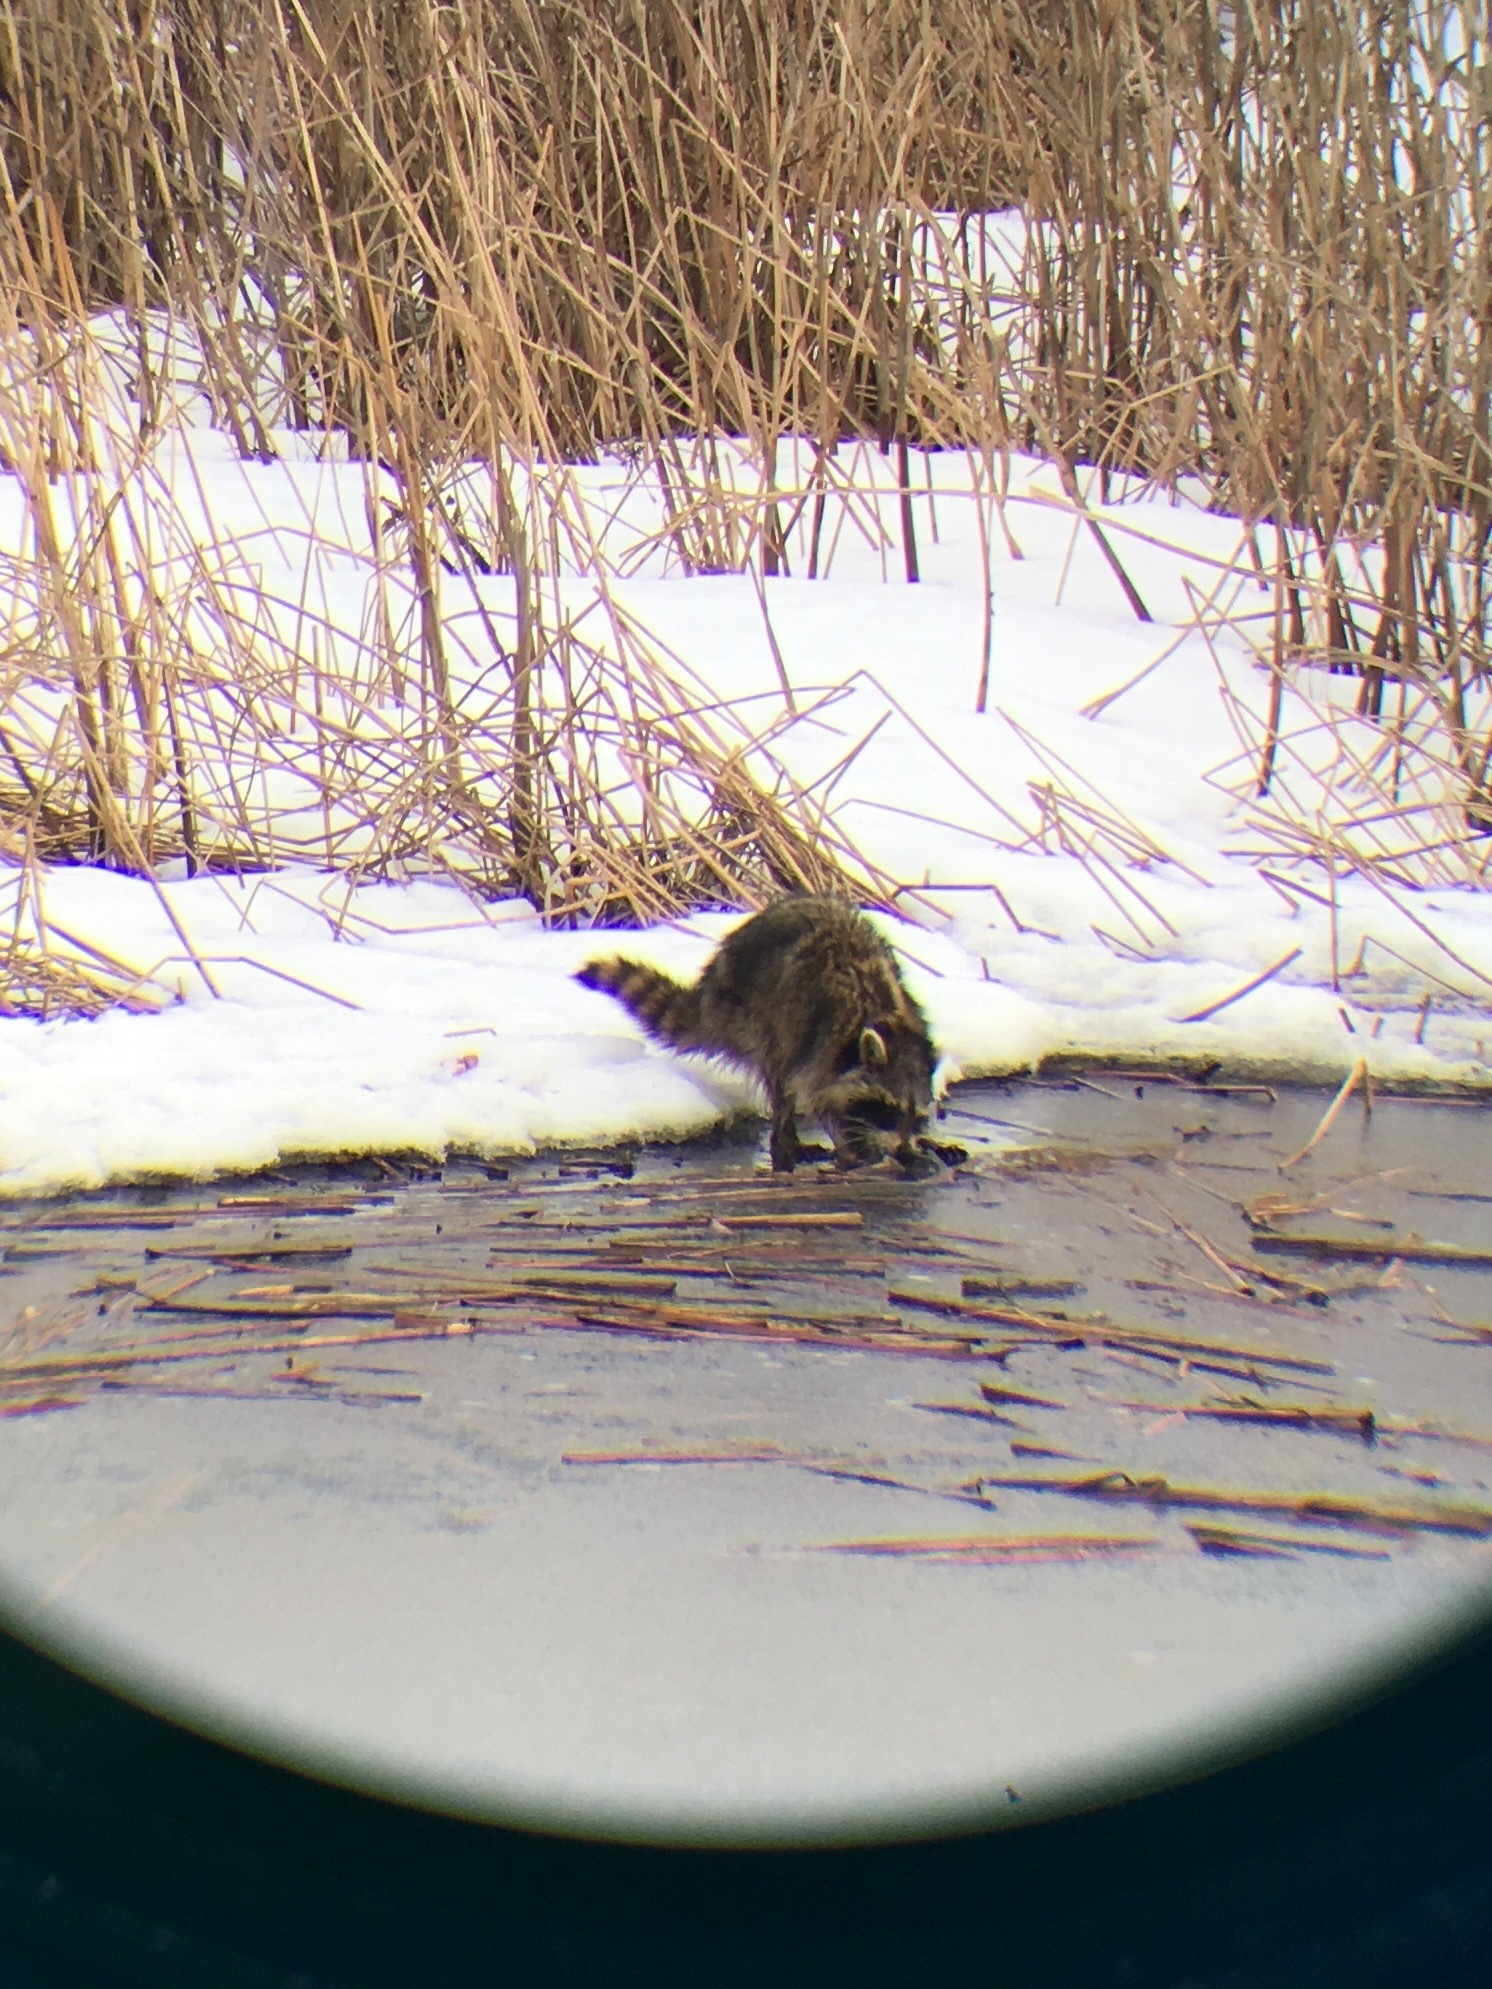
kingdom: Animalia
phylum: Chordata
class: Mammalia
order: Carnivora
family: Procyonidae
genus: Procyon
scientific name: Procyon lotor
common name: Raccoon
